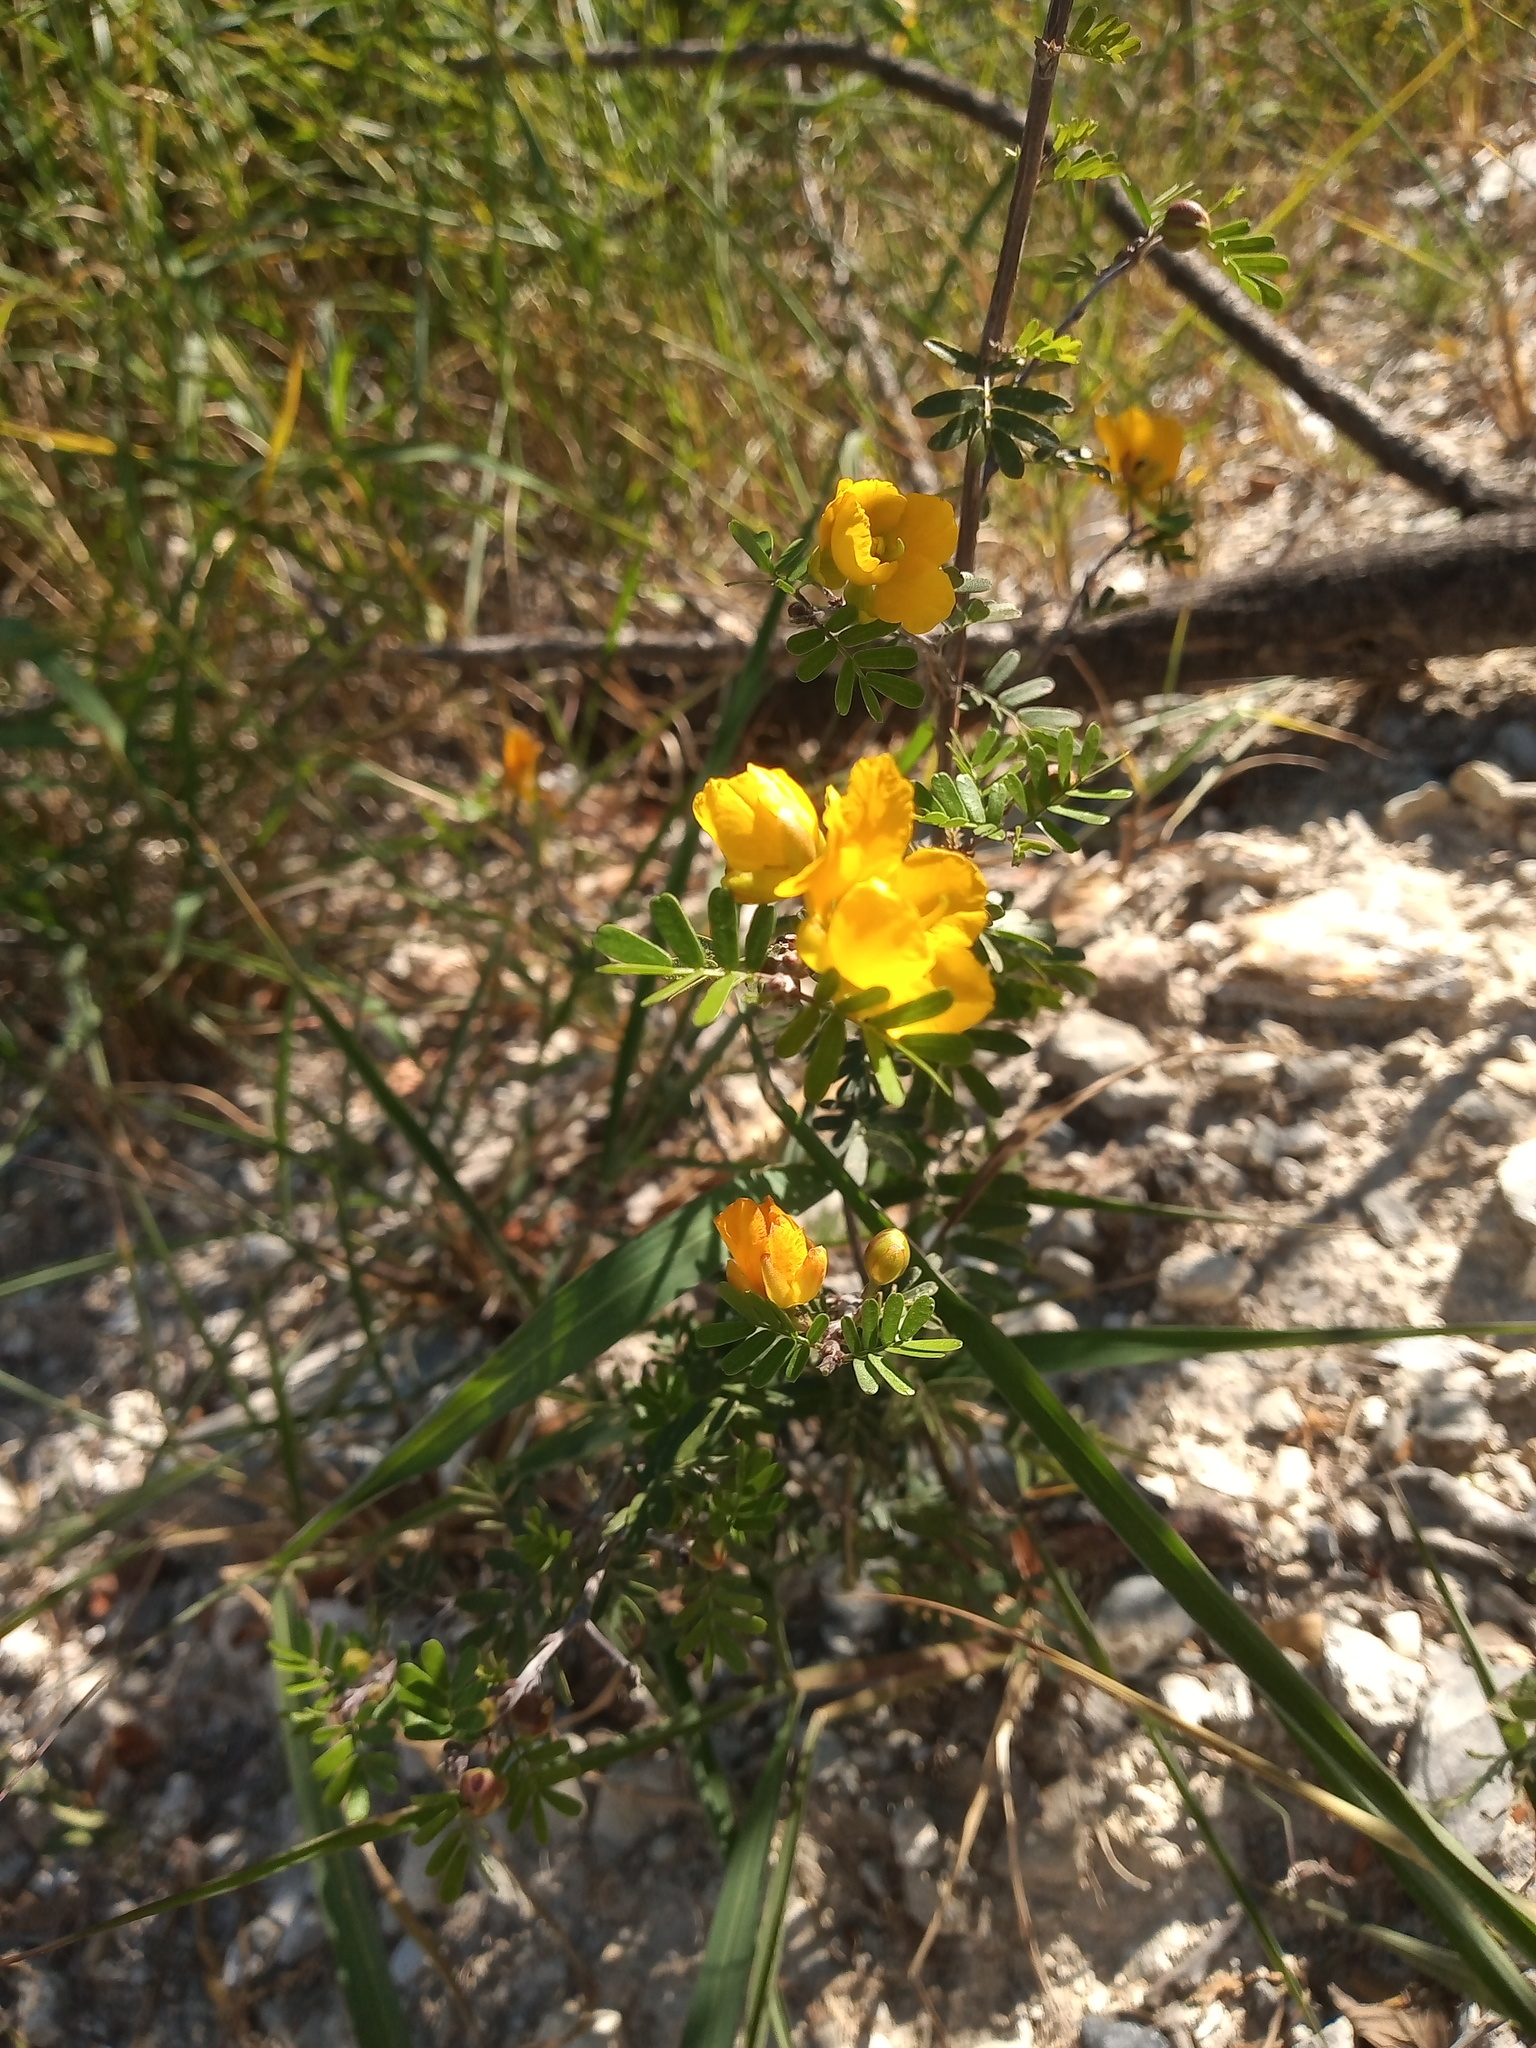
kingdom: Plantae
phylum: Tracheophyta
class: Magnoliopsida
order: Fabales
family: Fabaceae
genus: Chamaecrista
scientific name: Chamaecrista greggii
